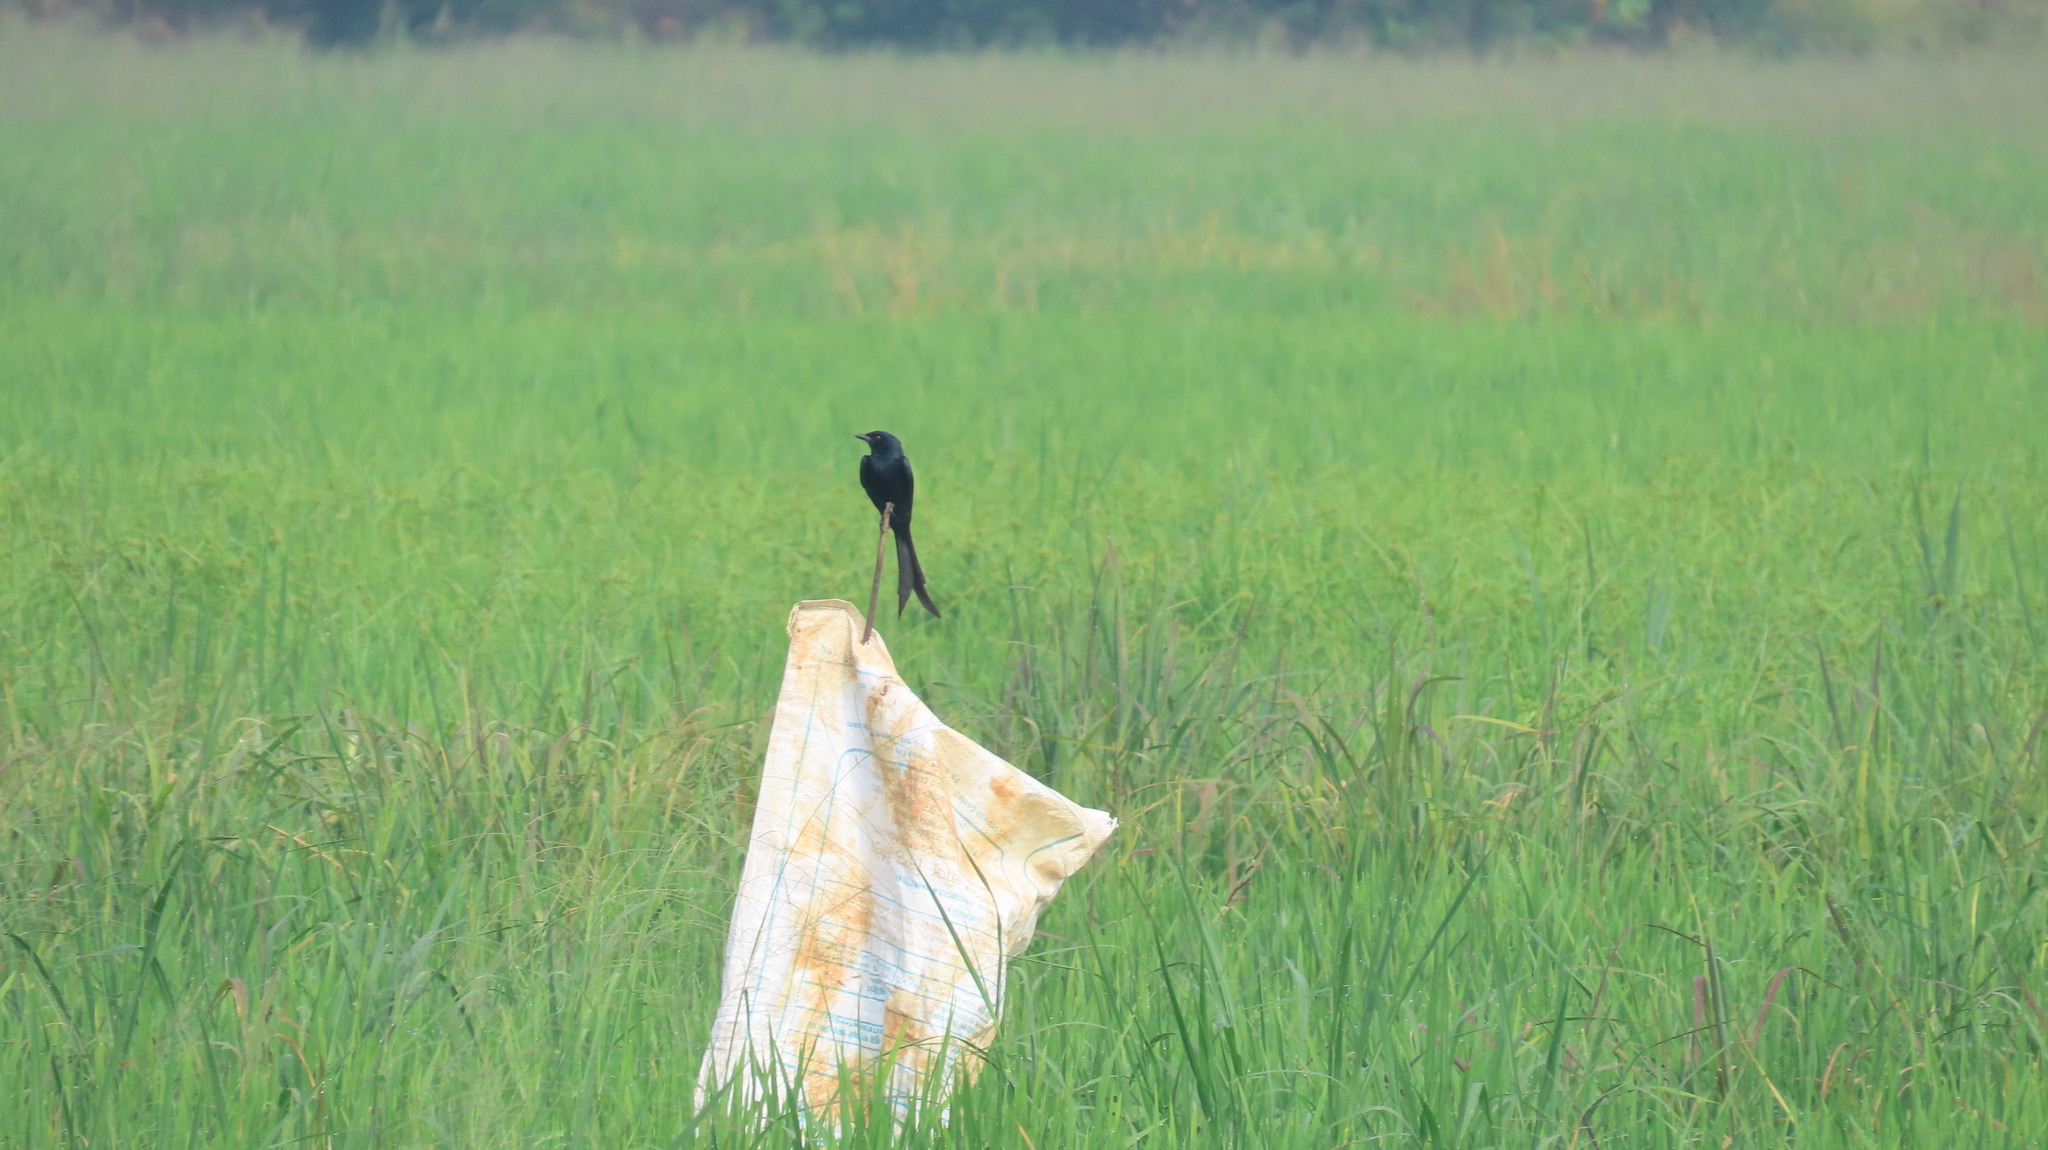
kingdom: Animalia
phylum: Chordata
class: Aves
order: Passeriformes
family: Dicruridae
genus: Dicrurus
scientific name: Dicrurus macrocercus
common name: Black drongo
